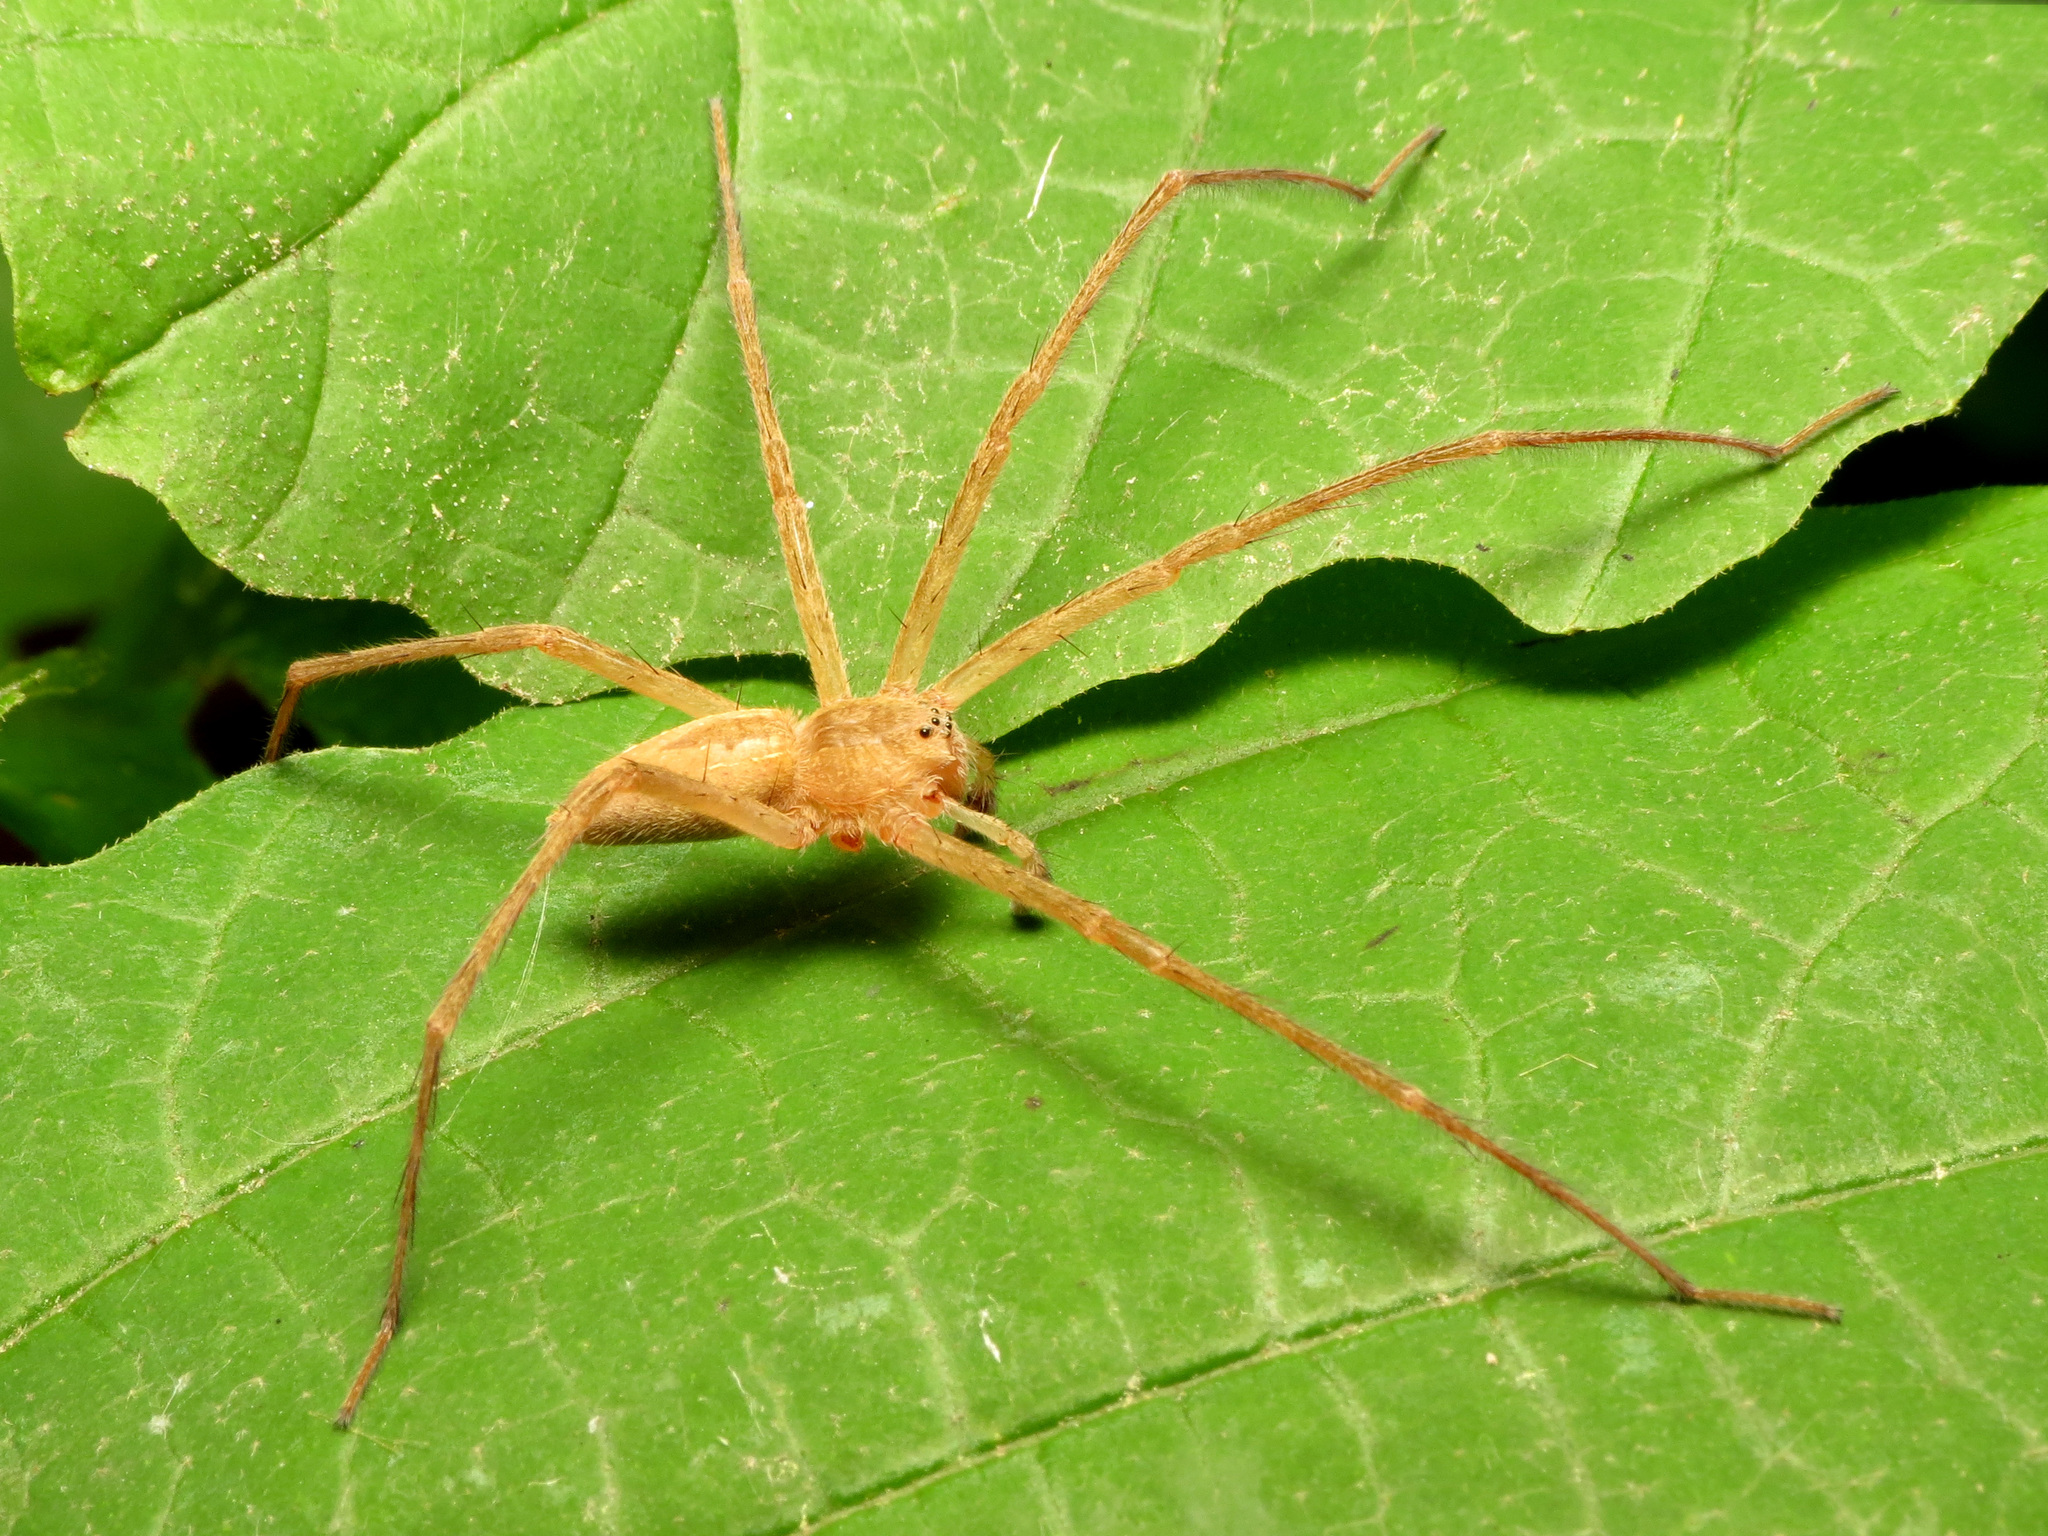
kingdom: Animalia
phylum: Arthropoda
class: Arachnida
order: Araneae
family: Pisauridae
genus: Pisaurina
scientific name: Pisaurina mira
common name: American nursery web spider
